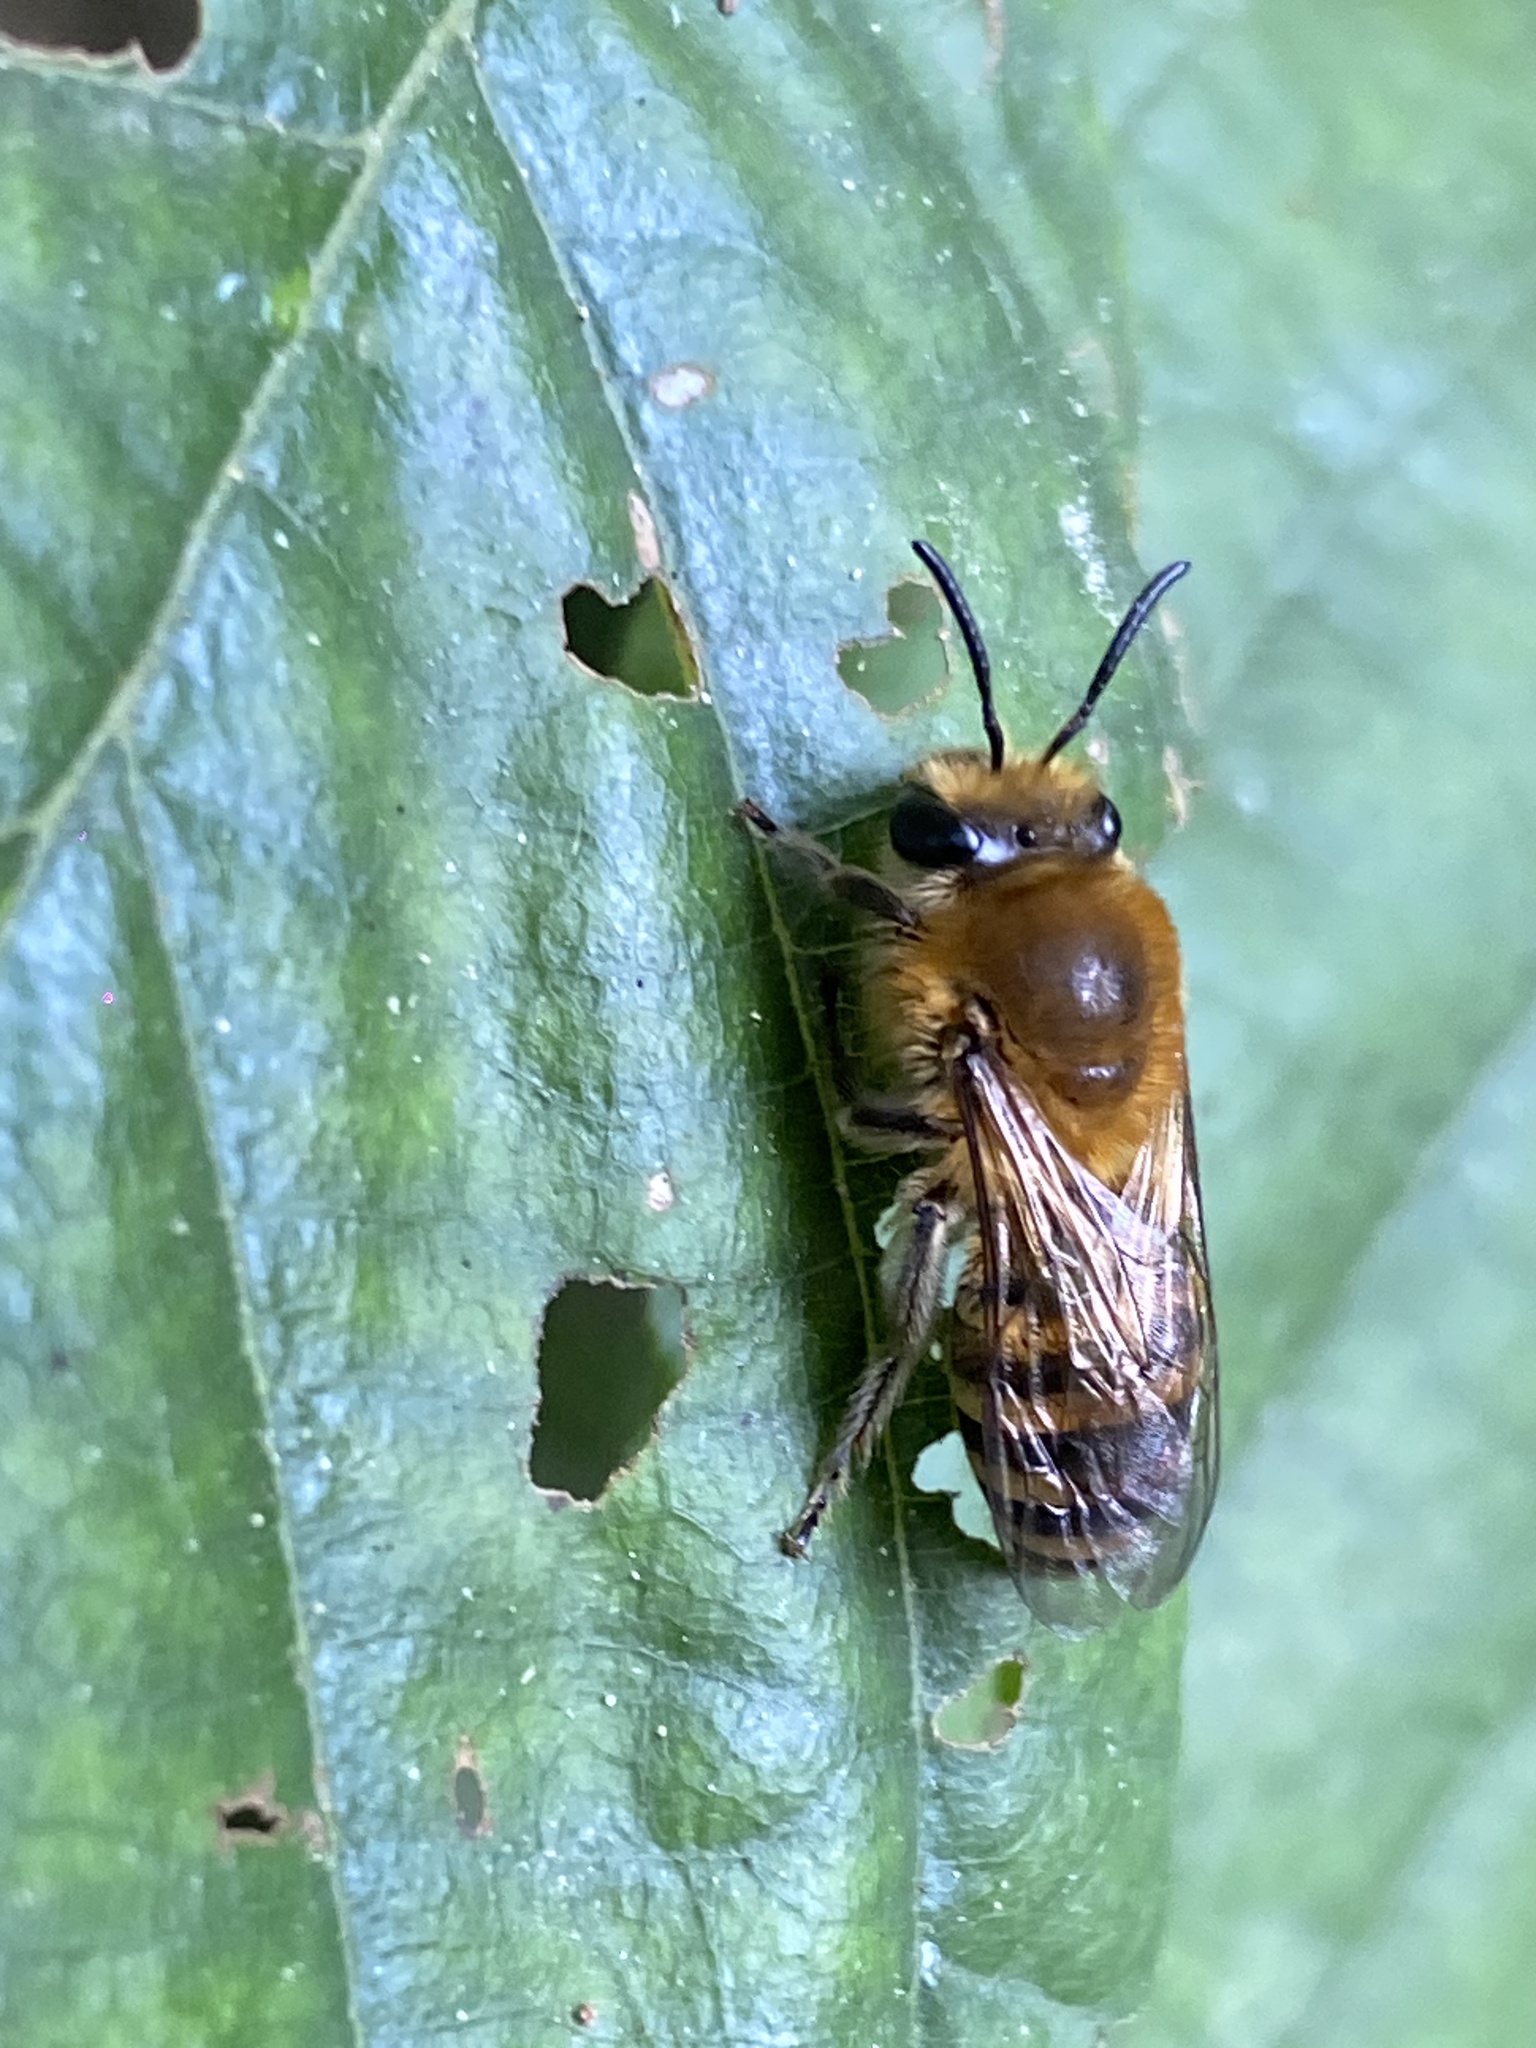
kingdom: Animalia
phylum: Arthropoda
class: Insecta
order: Hymenoptera
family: Colletidae
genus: Colletes
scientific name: Colletes hederae
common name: Ivy bee
